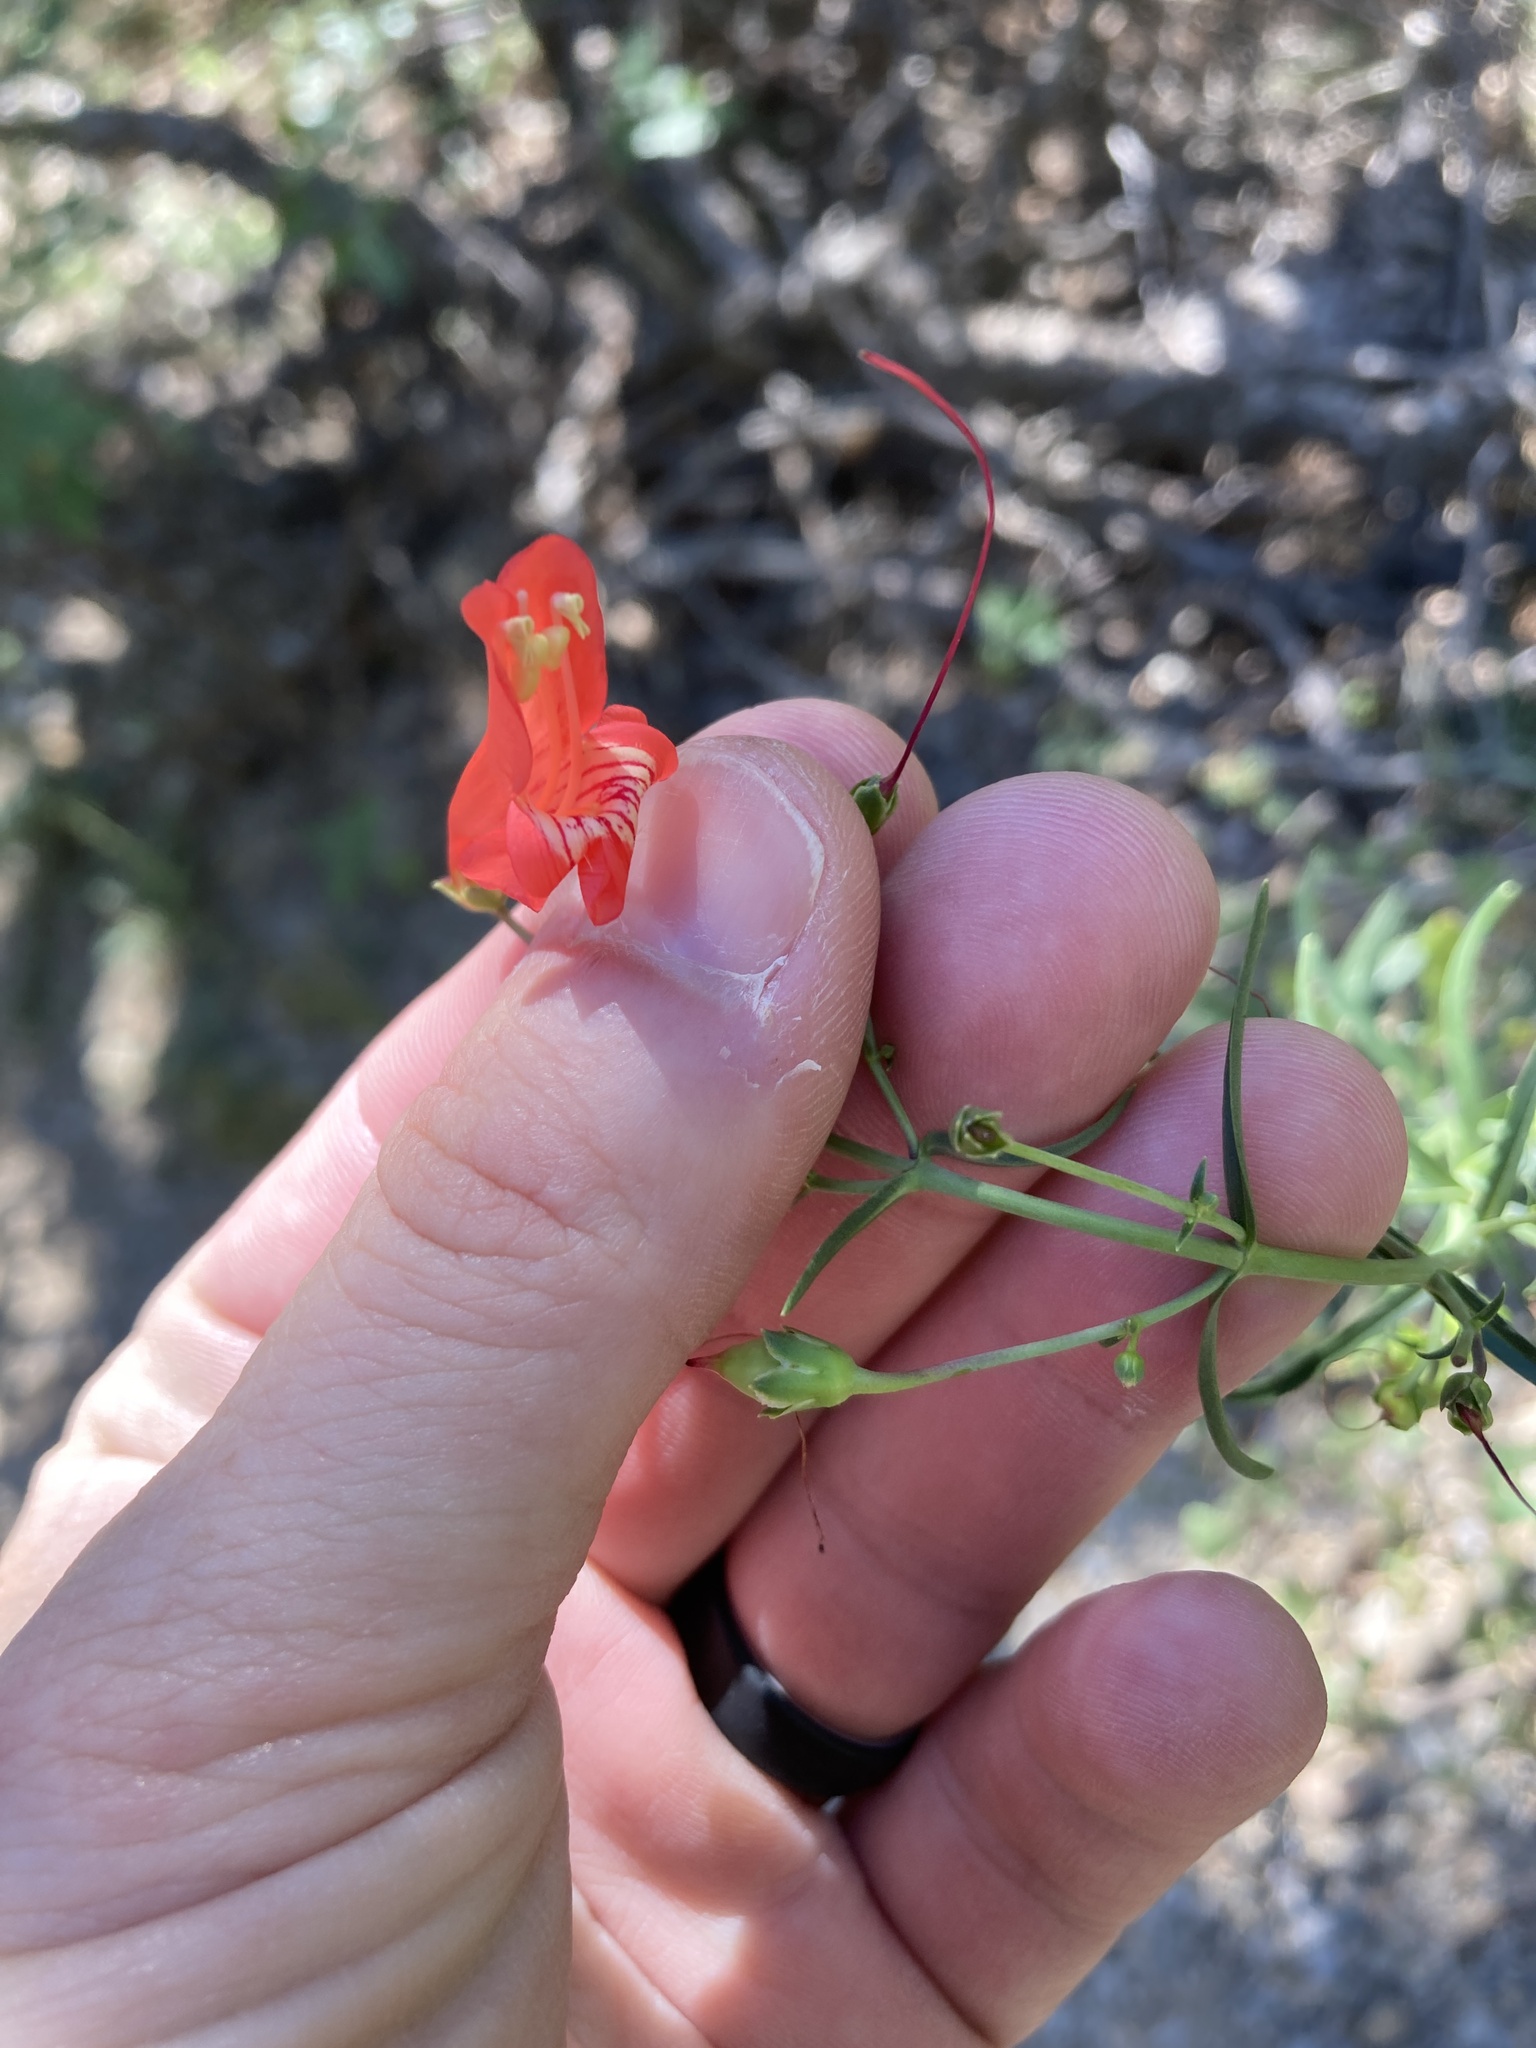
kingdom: Plantae
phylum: Tracheophyta
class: Magnoliopsida
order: Lamiales
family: Plantaginaceae
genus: Penstemon
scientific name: Penstemon barbatus
